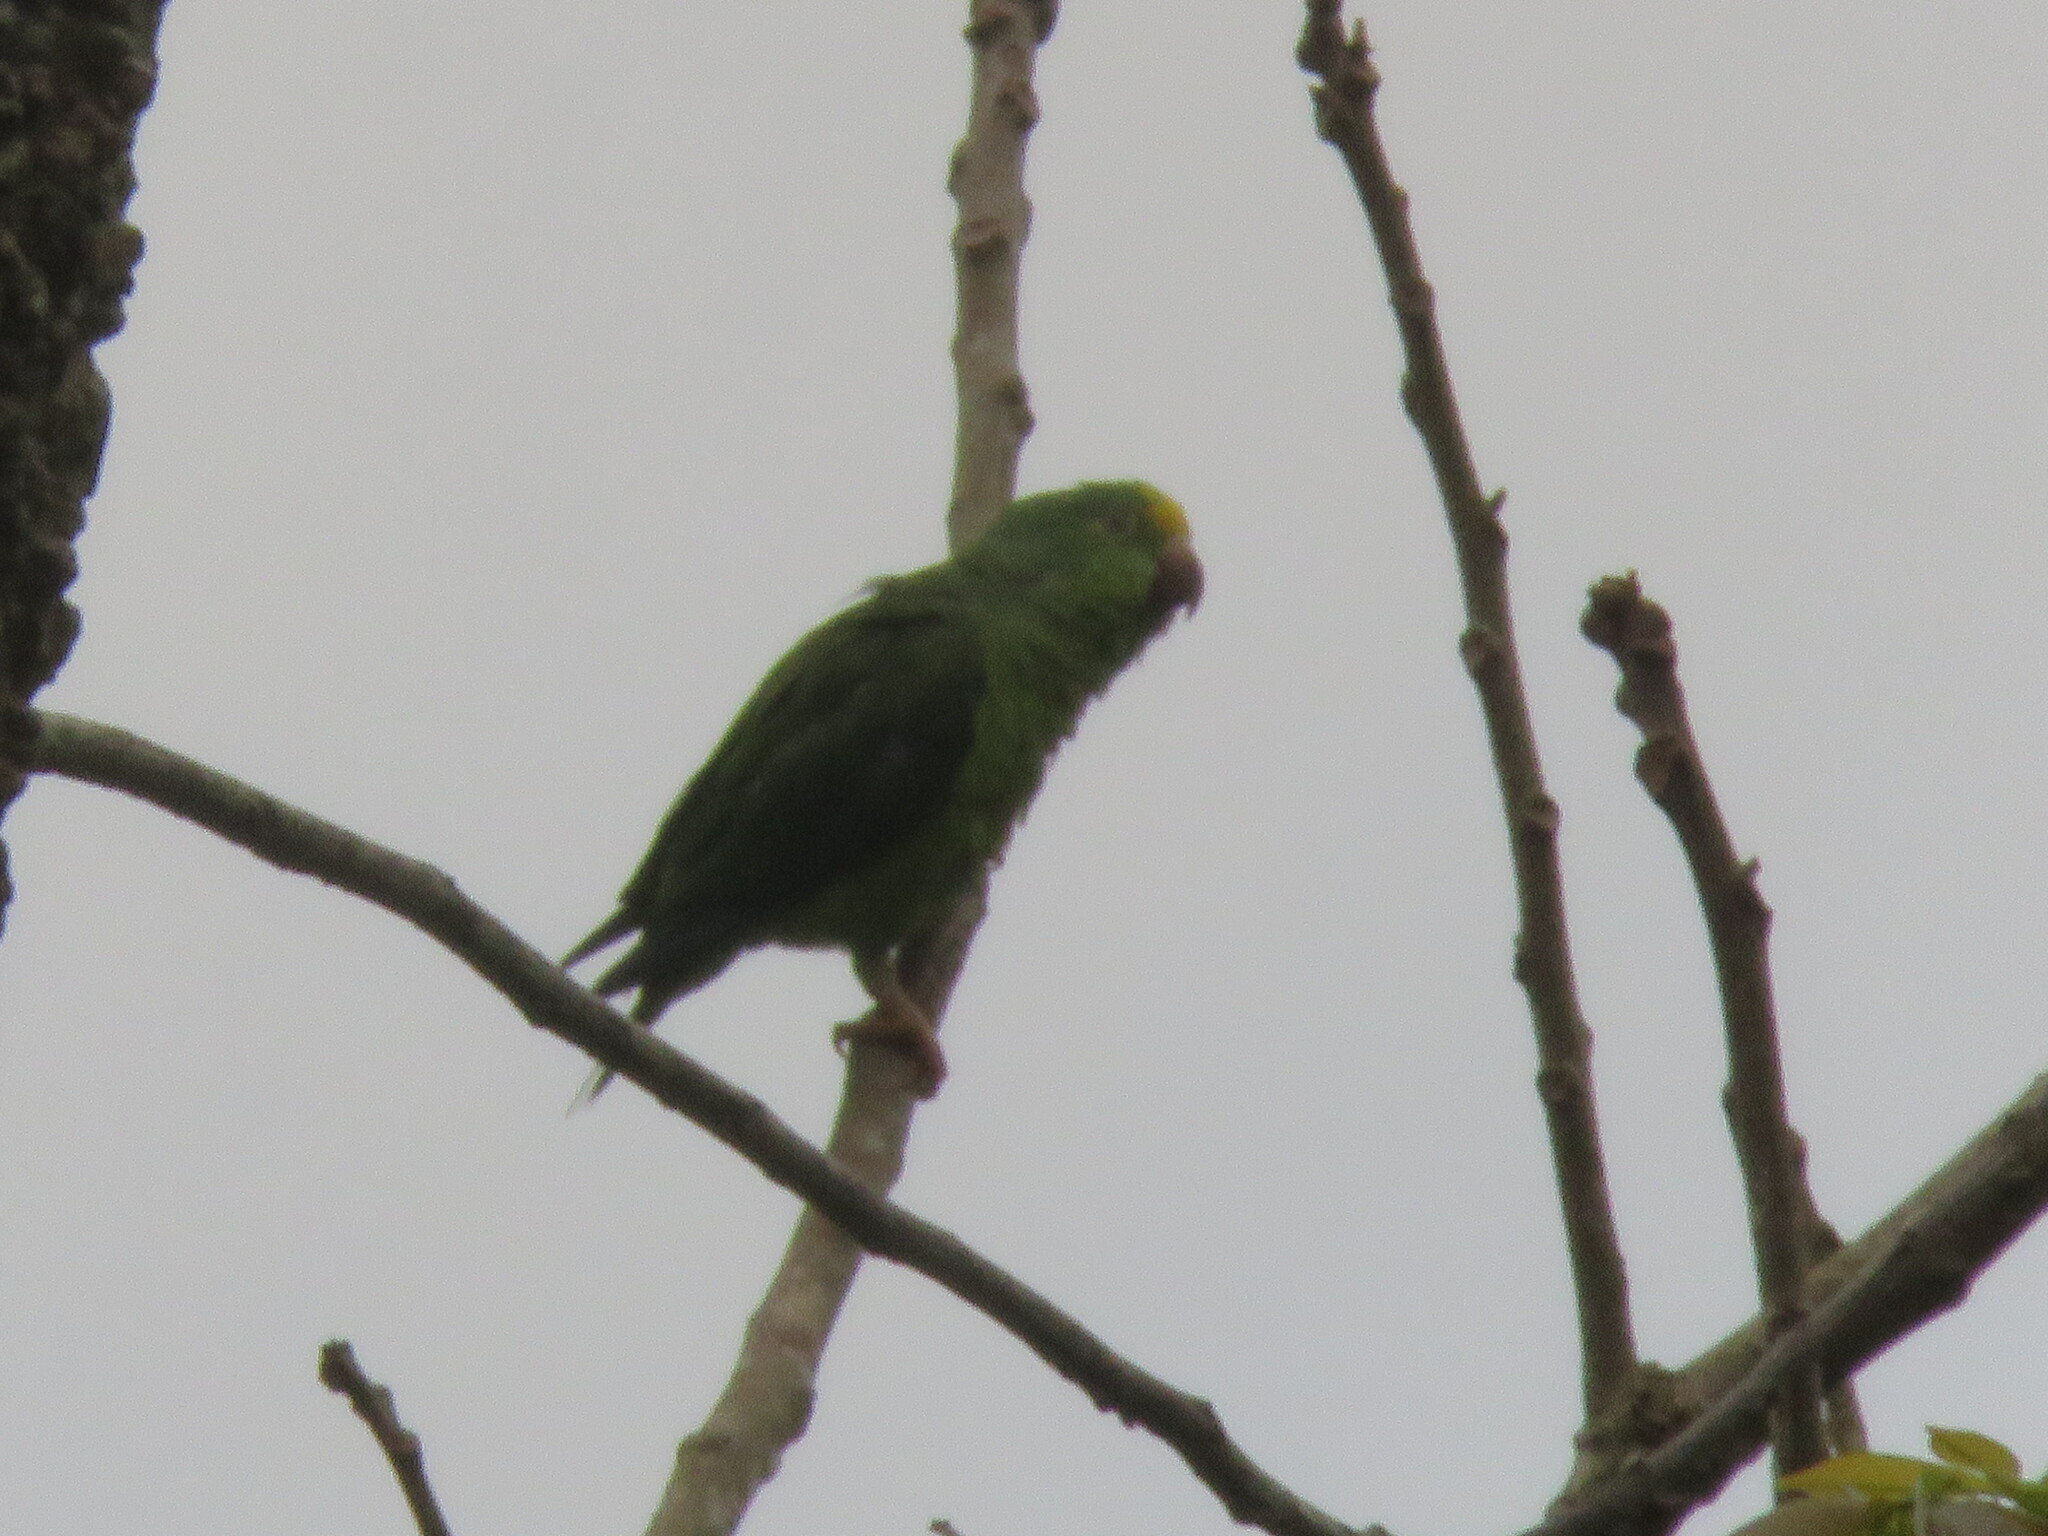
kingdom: Animalia
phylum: Chordata
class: Aves
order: Psittaciformes
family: Psittacidae
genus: Brotogeris
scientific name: Brotogeris sanctithomae
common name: Tui parakeet
